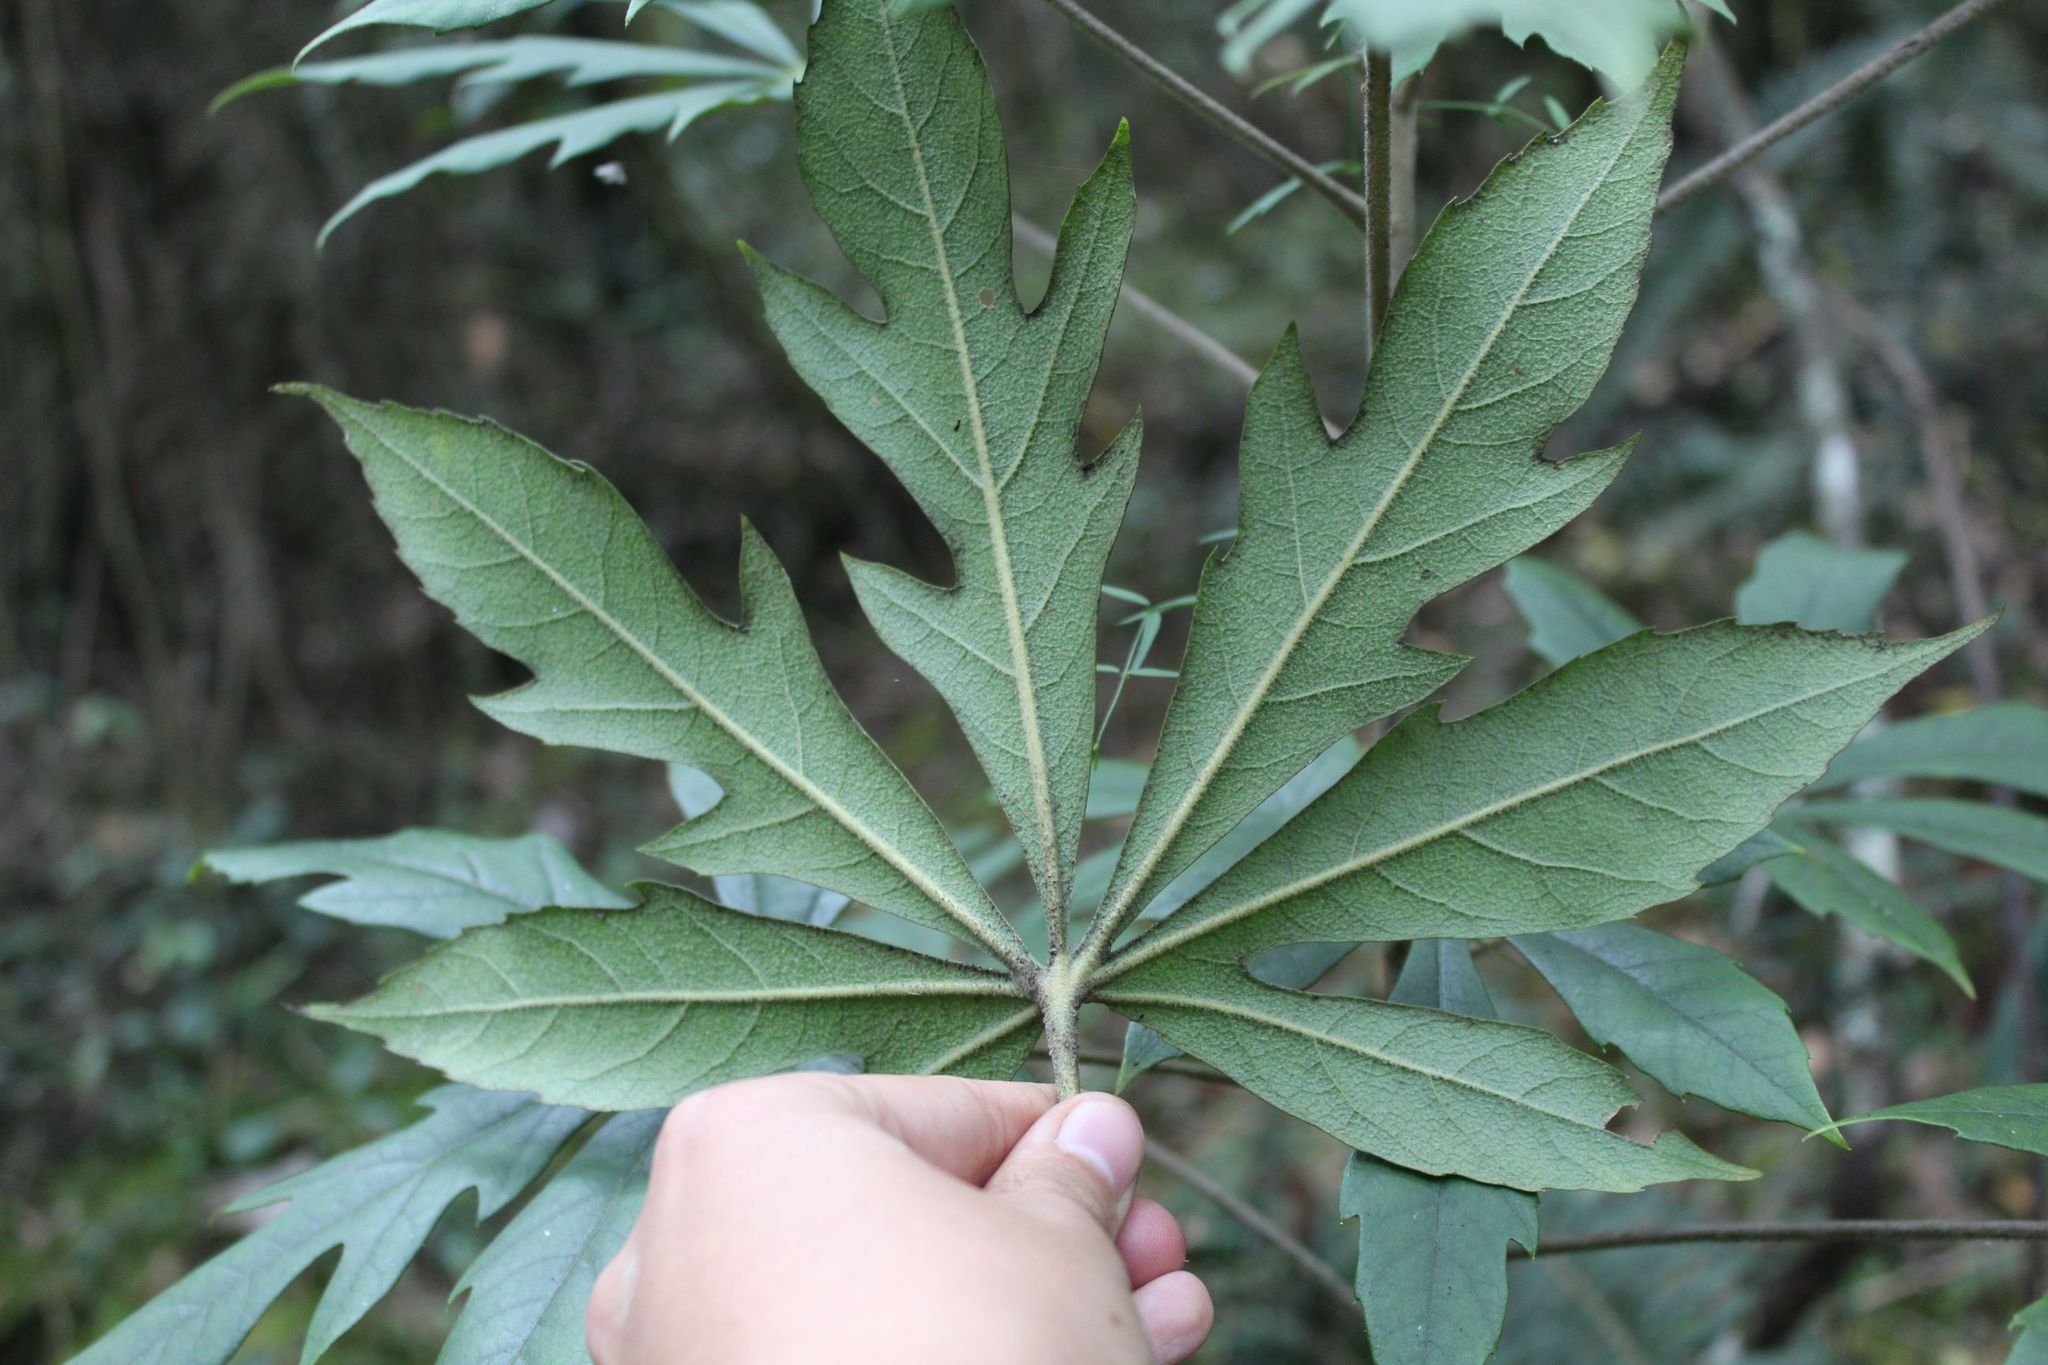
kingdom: Plantae
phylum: Tracheophyta
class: Magnoliopsida
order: Apiales
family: Araliaceae
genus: Oreopanax
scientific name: Oreopanax incisus
